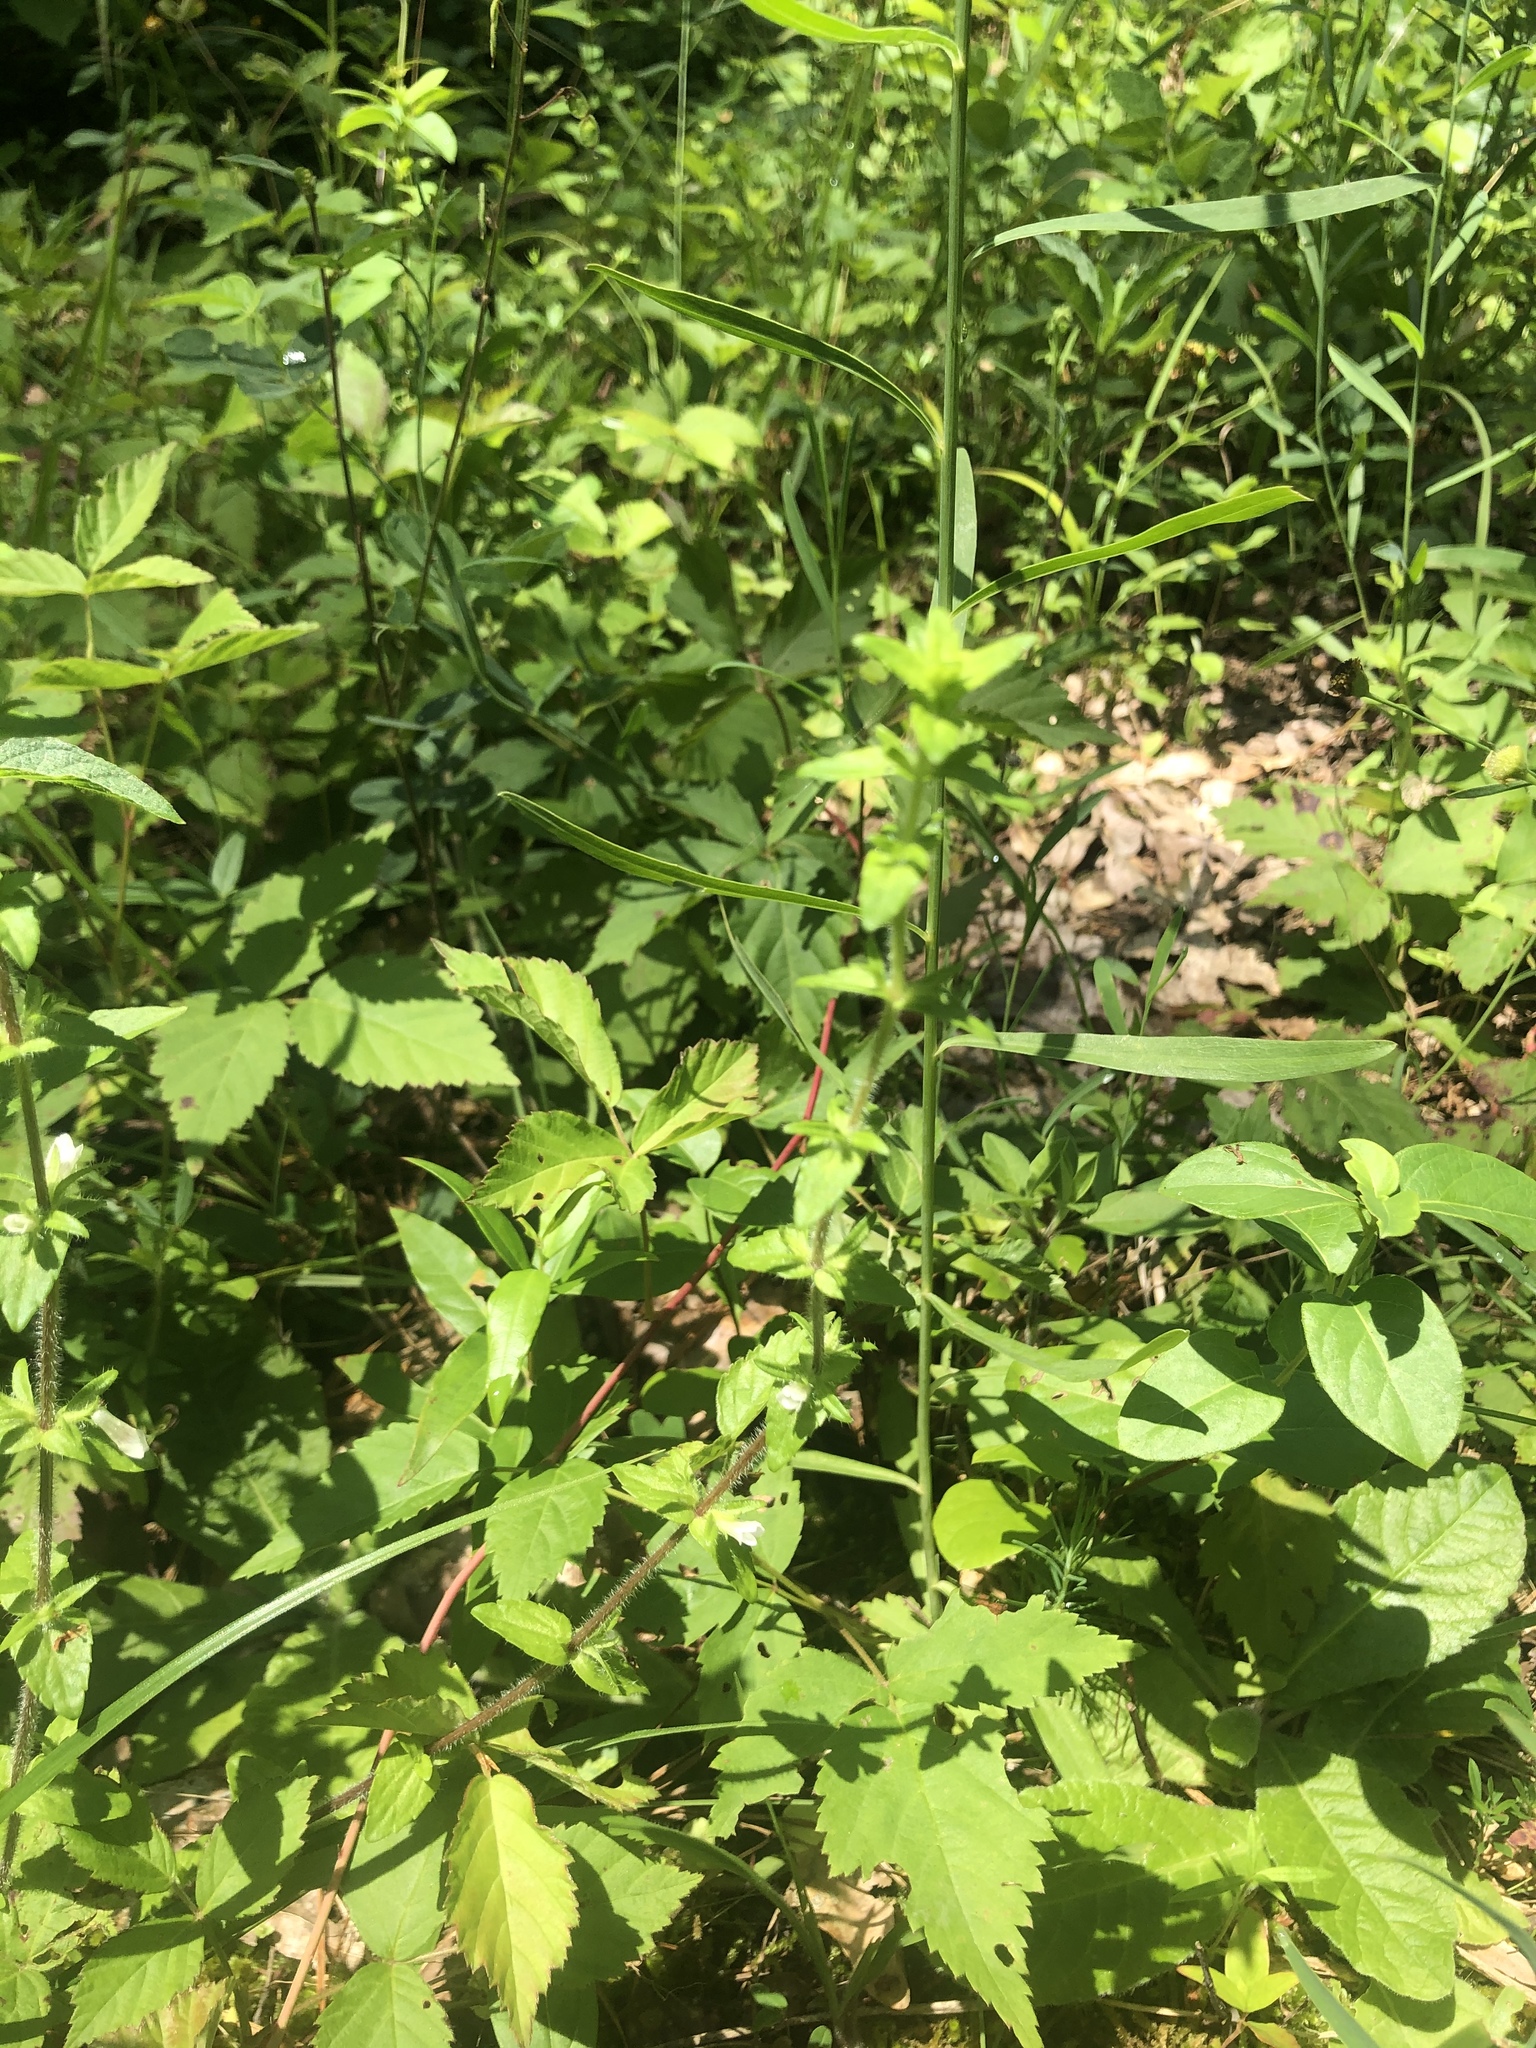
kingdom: Plantae
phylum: Tracheophyta
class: Magnoliopsida
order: Lamiales
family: Plantaginaceae
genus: Gratiola
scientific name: Gratiola pilosa
